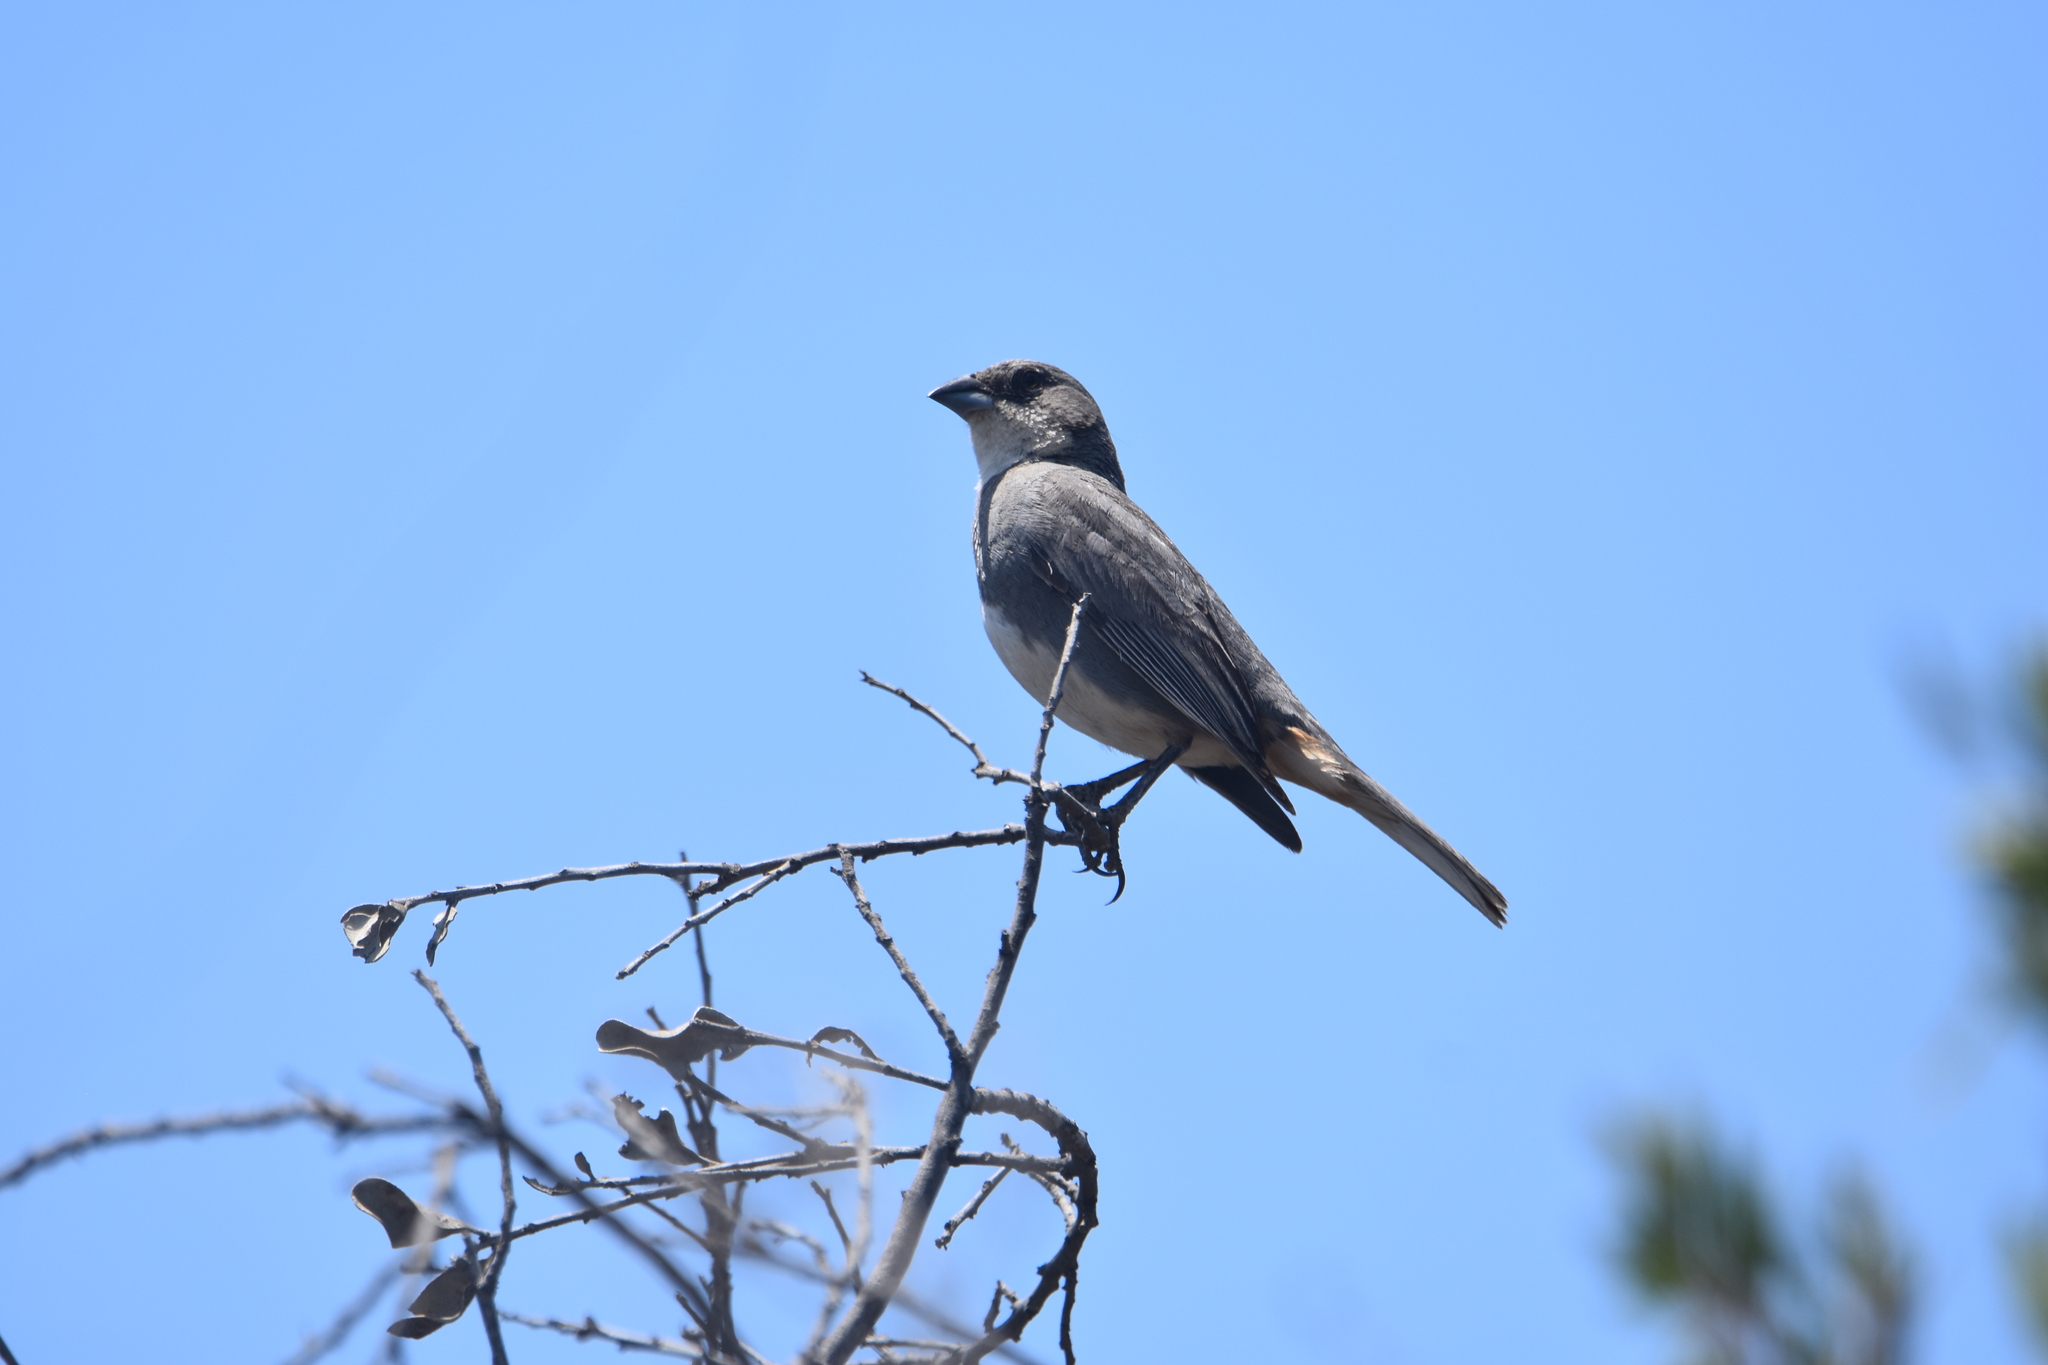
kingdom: Animalia
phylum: Chordata
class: Aves
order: Passeriformes
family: Thraupidae
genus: Diuca
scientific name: Diuca diuca
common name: Common diuca finch
